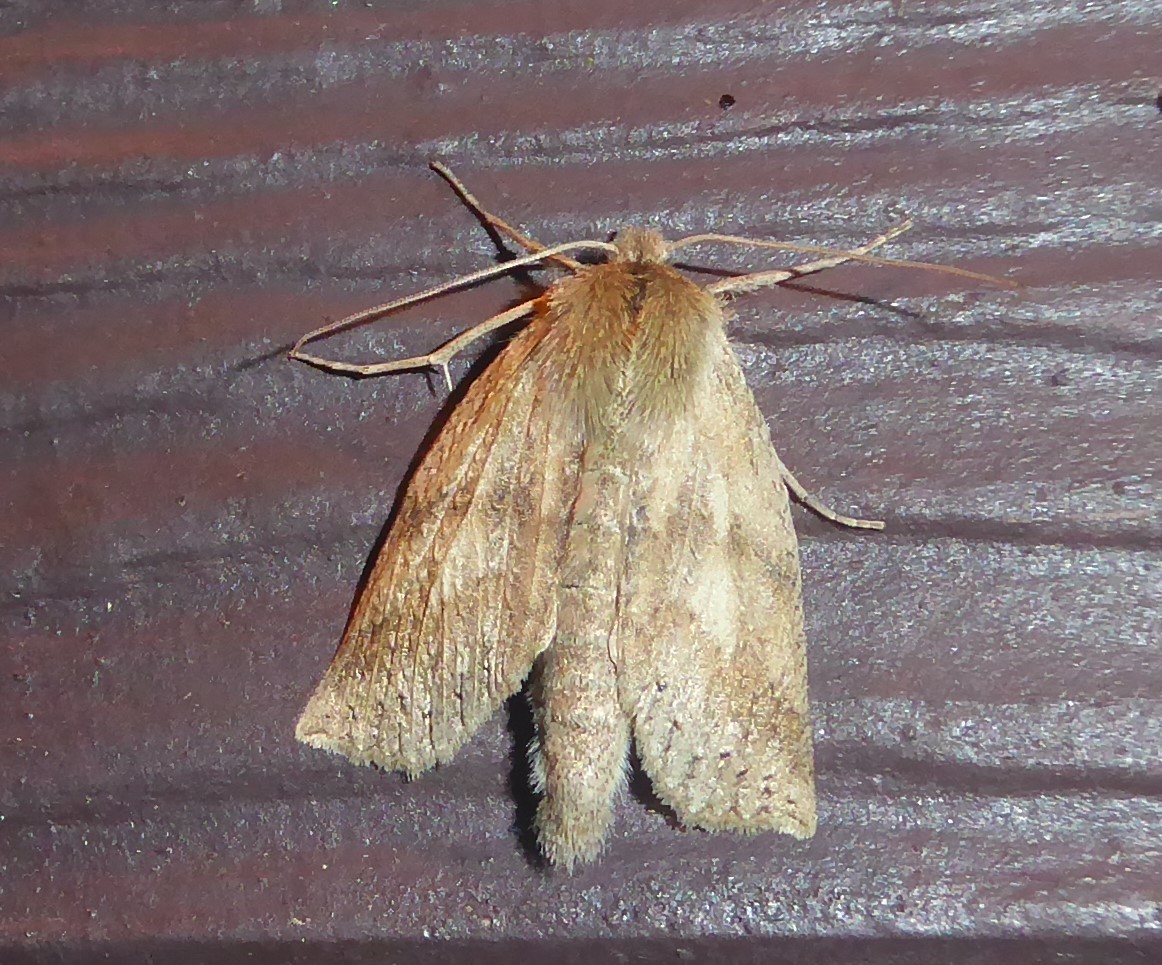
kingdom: Animalia
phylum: Arthropoda
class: Insecta
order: Lepidoptera
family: Geometridae
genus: Declana
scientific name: Declana leptomera
